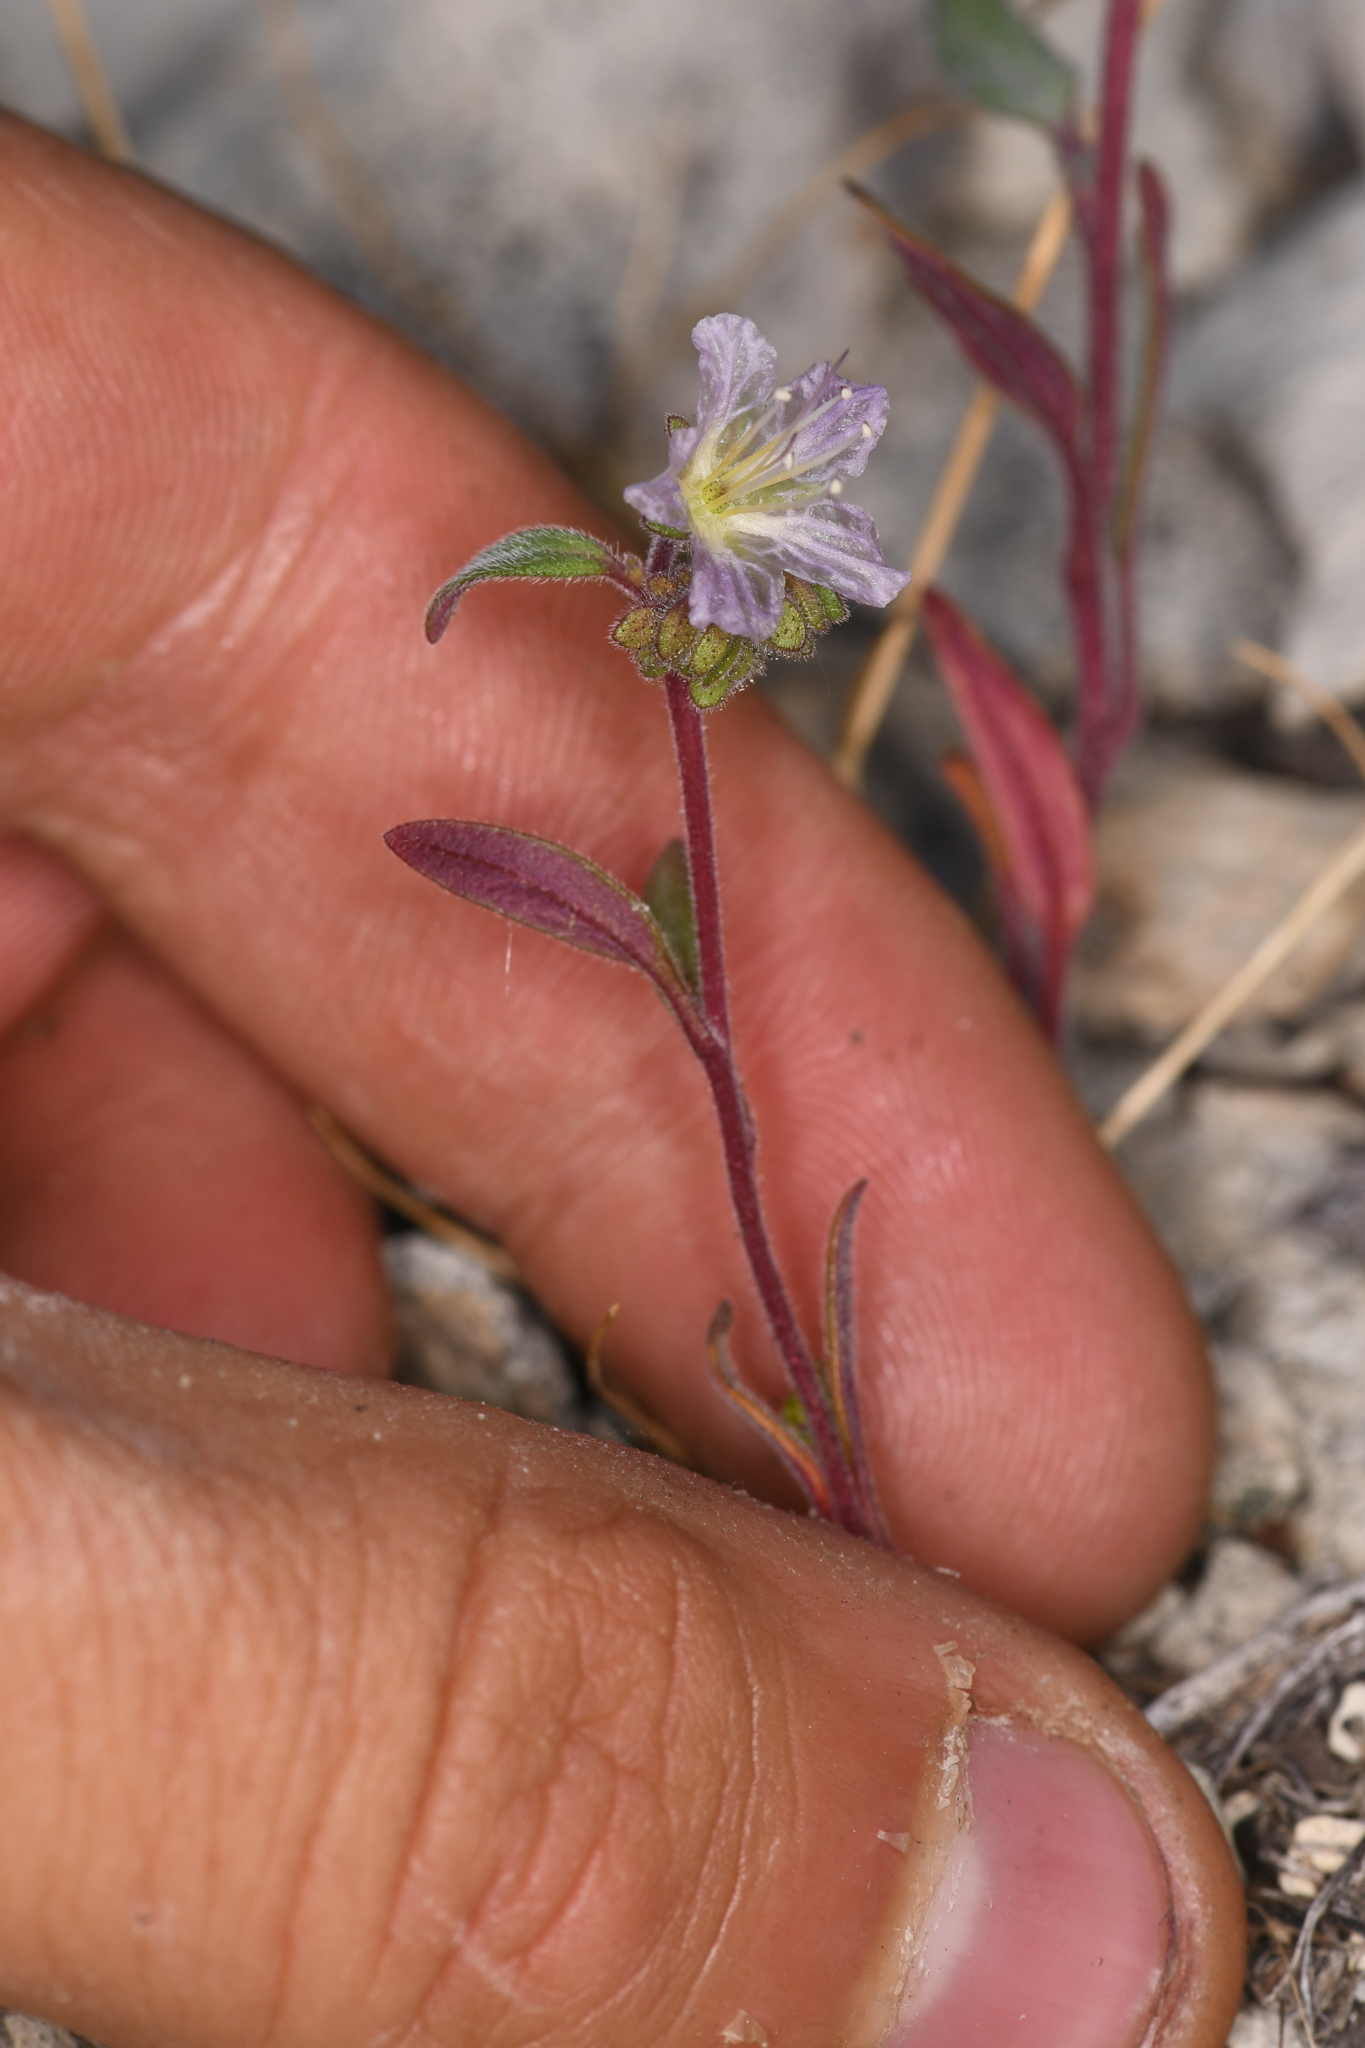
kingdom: Plantae
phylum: Tracheophyta
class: Magnoliopsida
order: Boraginales
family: Hydrophyllaceae
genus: Phacelia
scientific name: Phacelia purpusii
